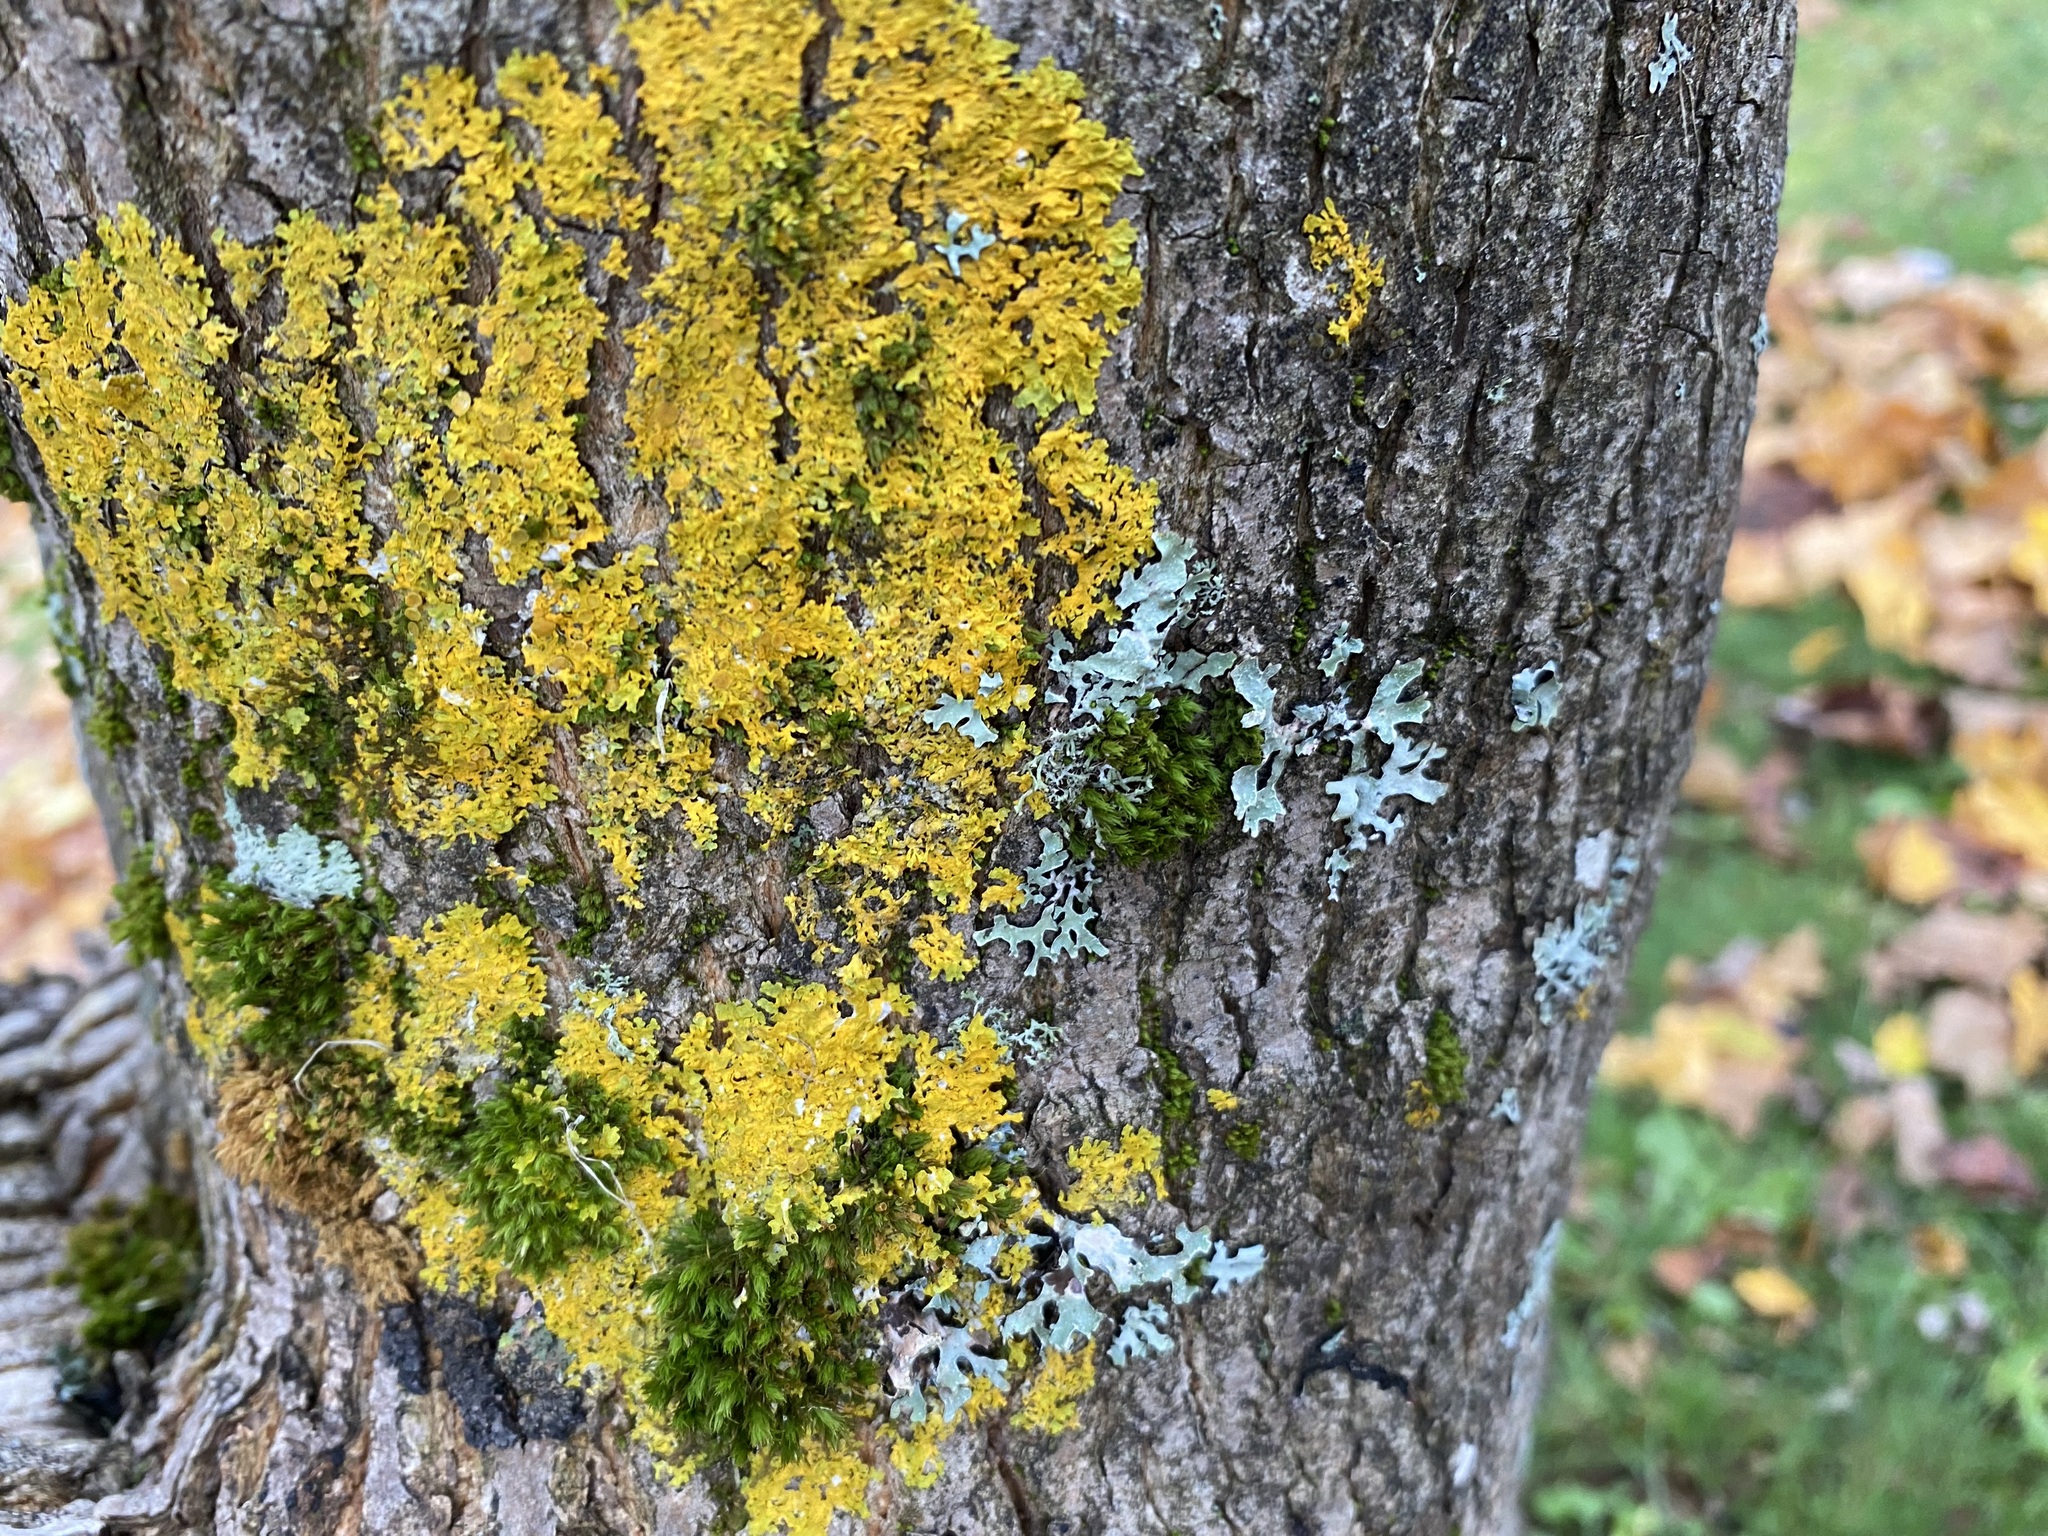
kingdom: Fungi
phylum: Ascomycota
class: Lecanoromycetes
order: Teloschistales
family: Teloschistaceae
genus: Xanthoria
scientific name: Xanthoria parietina
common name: Common orange lichen
